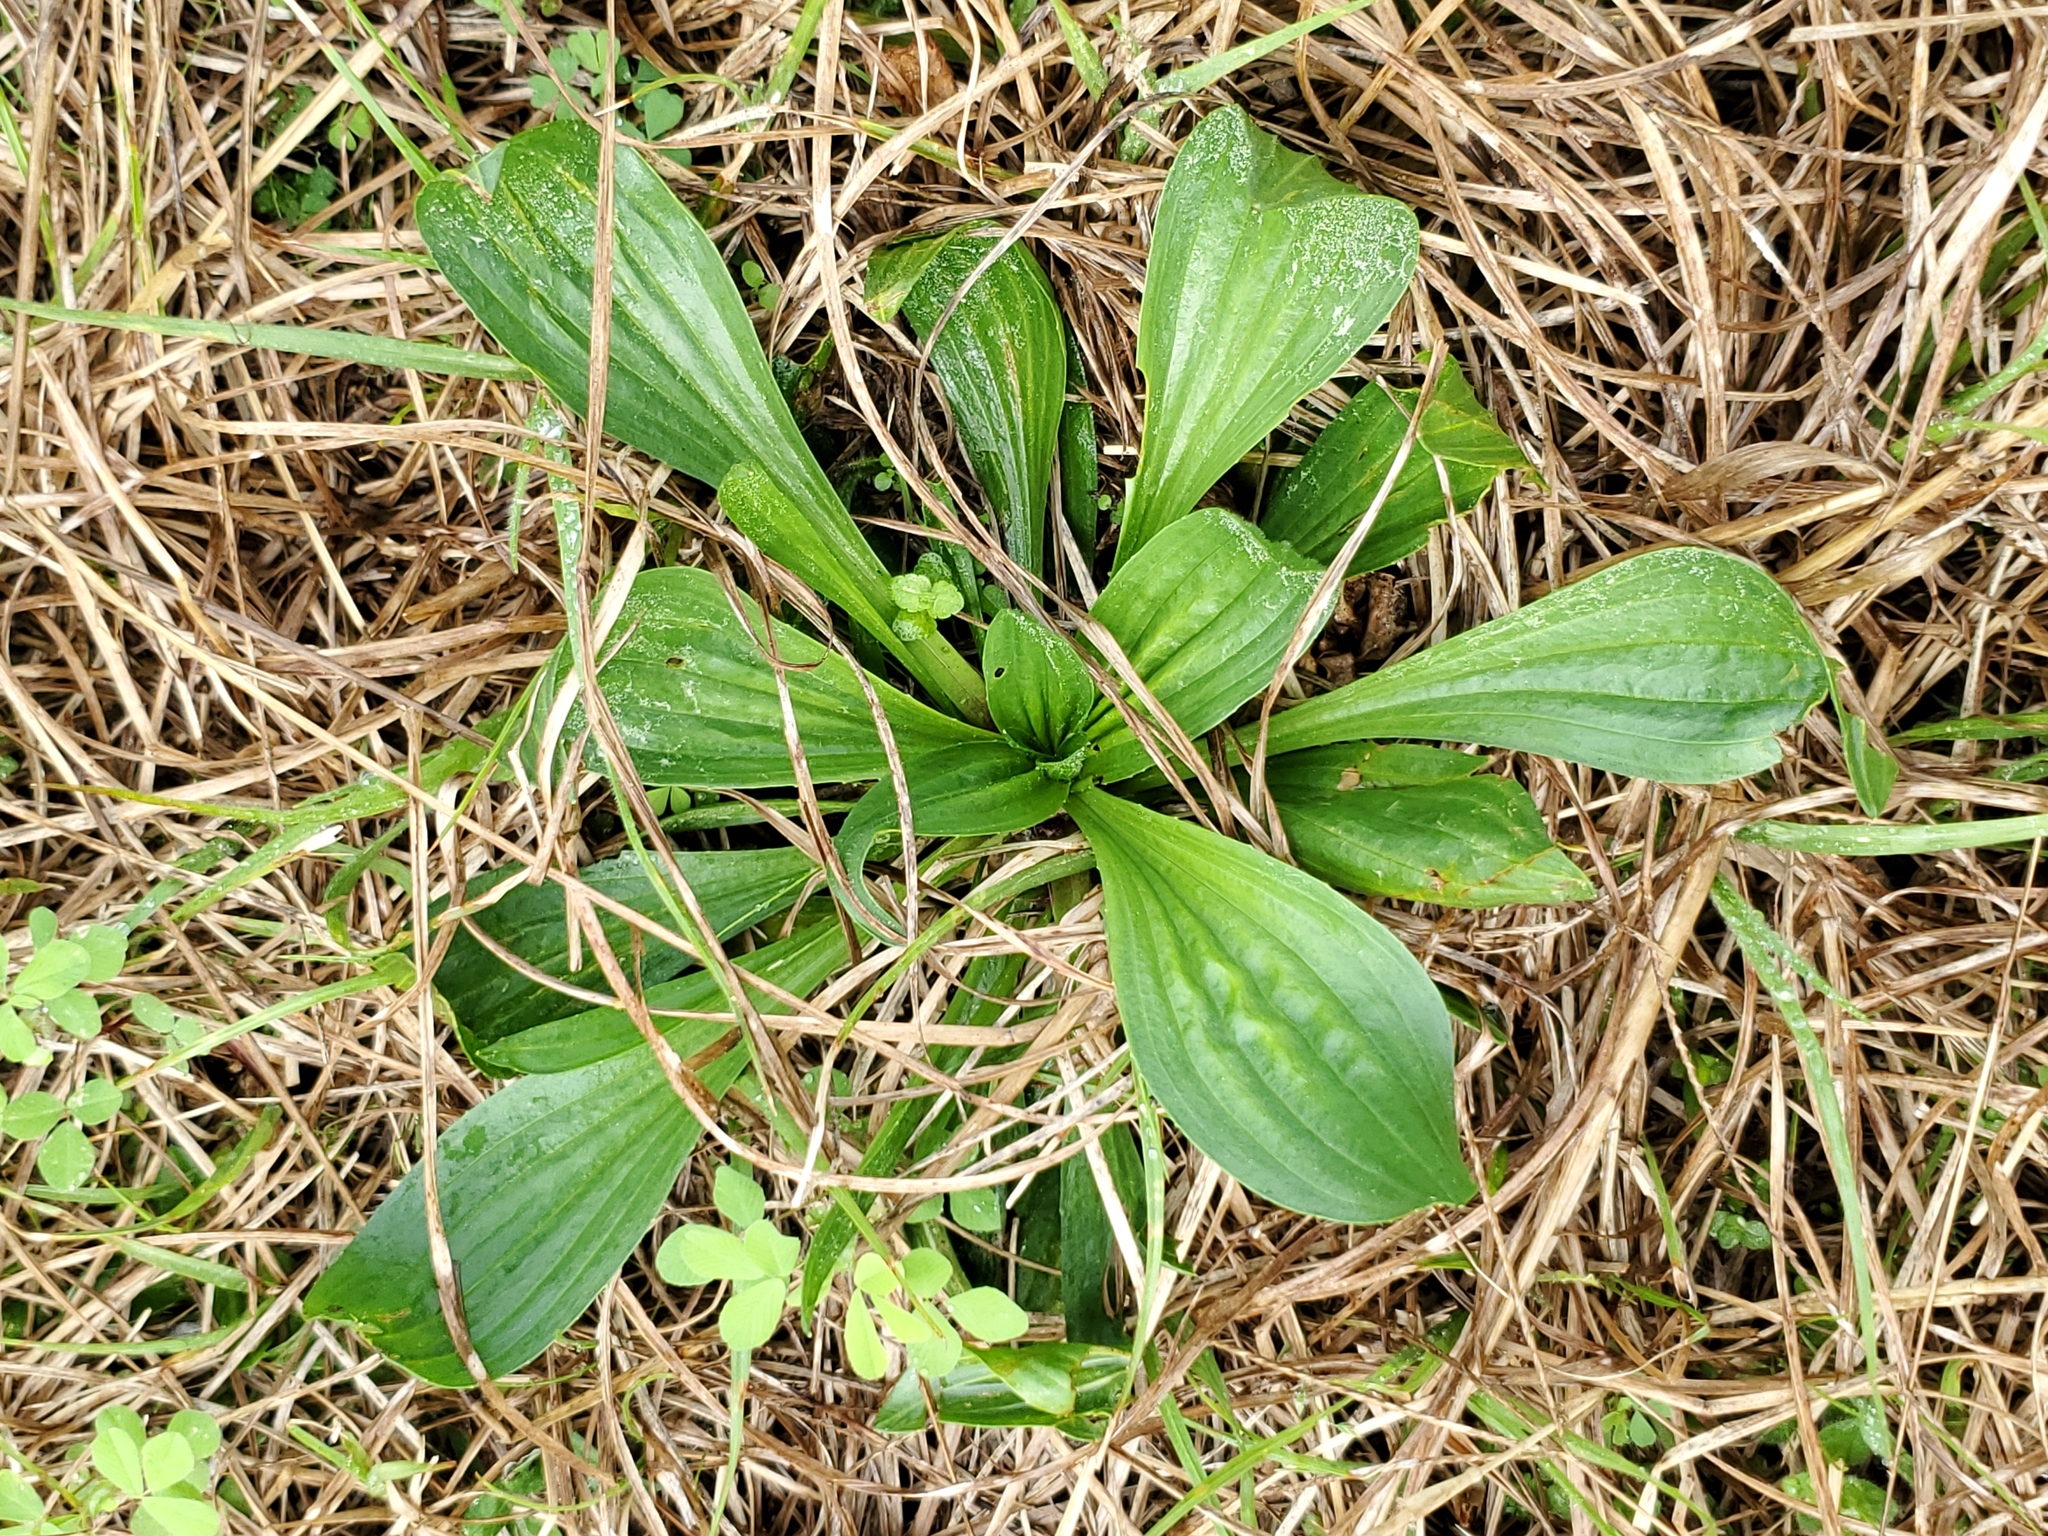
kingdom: Plantae
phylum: Tracheophyta
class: Magnoliopsida
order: Lamiales
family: Plantaginaceae
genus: Plantago
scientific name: Plantago lanceolata
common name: Ribwort plantain
